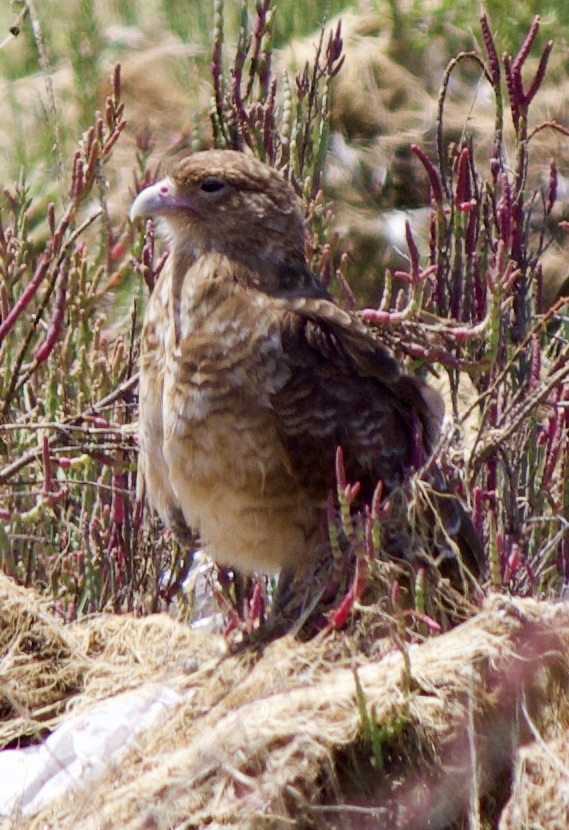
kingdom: Animalia
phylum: Chordata
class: Aves
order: Falconiformes
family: Falconidae
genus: Daptrius
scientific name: Daptrius
